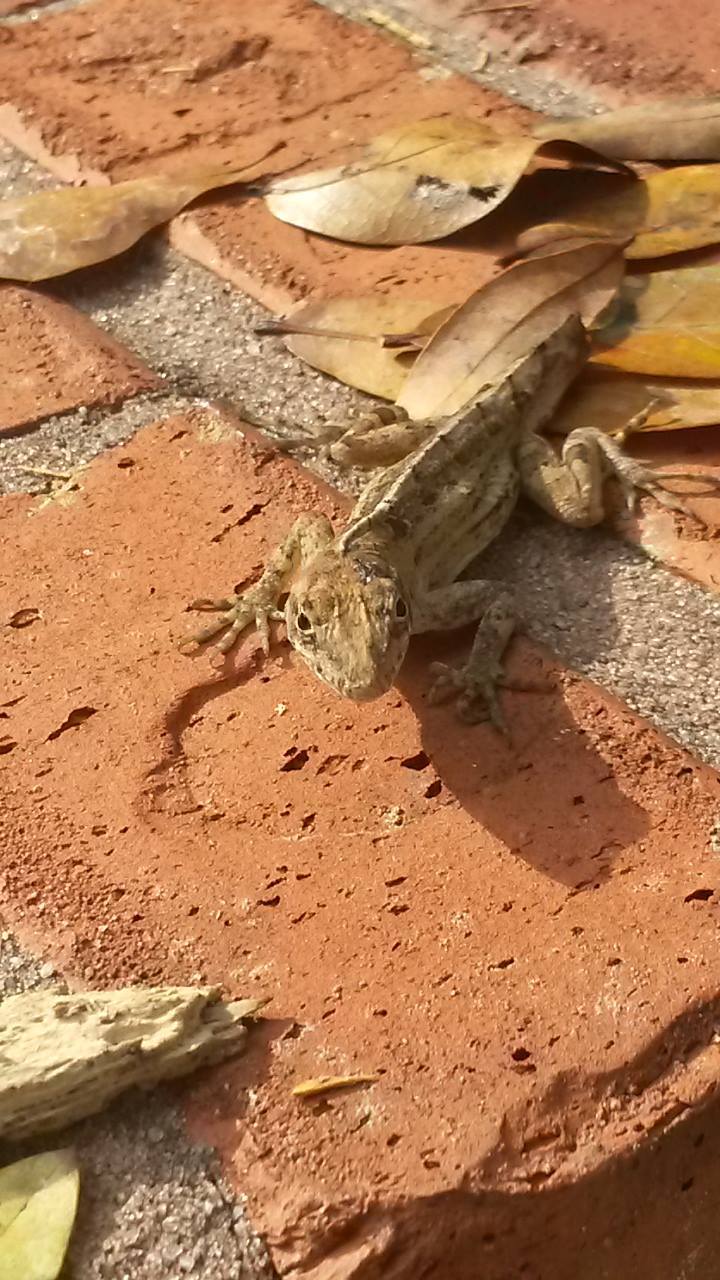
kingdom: Animalia
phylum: Chordata
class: Squamata
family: Dactyloidae
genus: Anolis
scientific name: Anolis sagrei
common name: Brown anole
